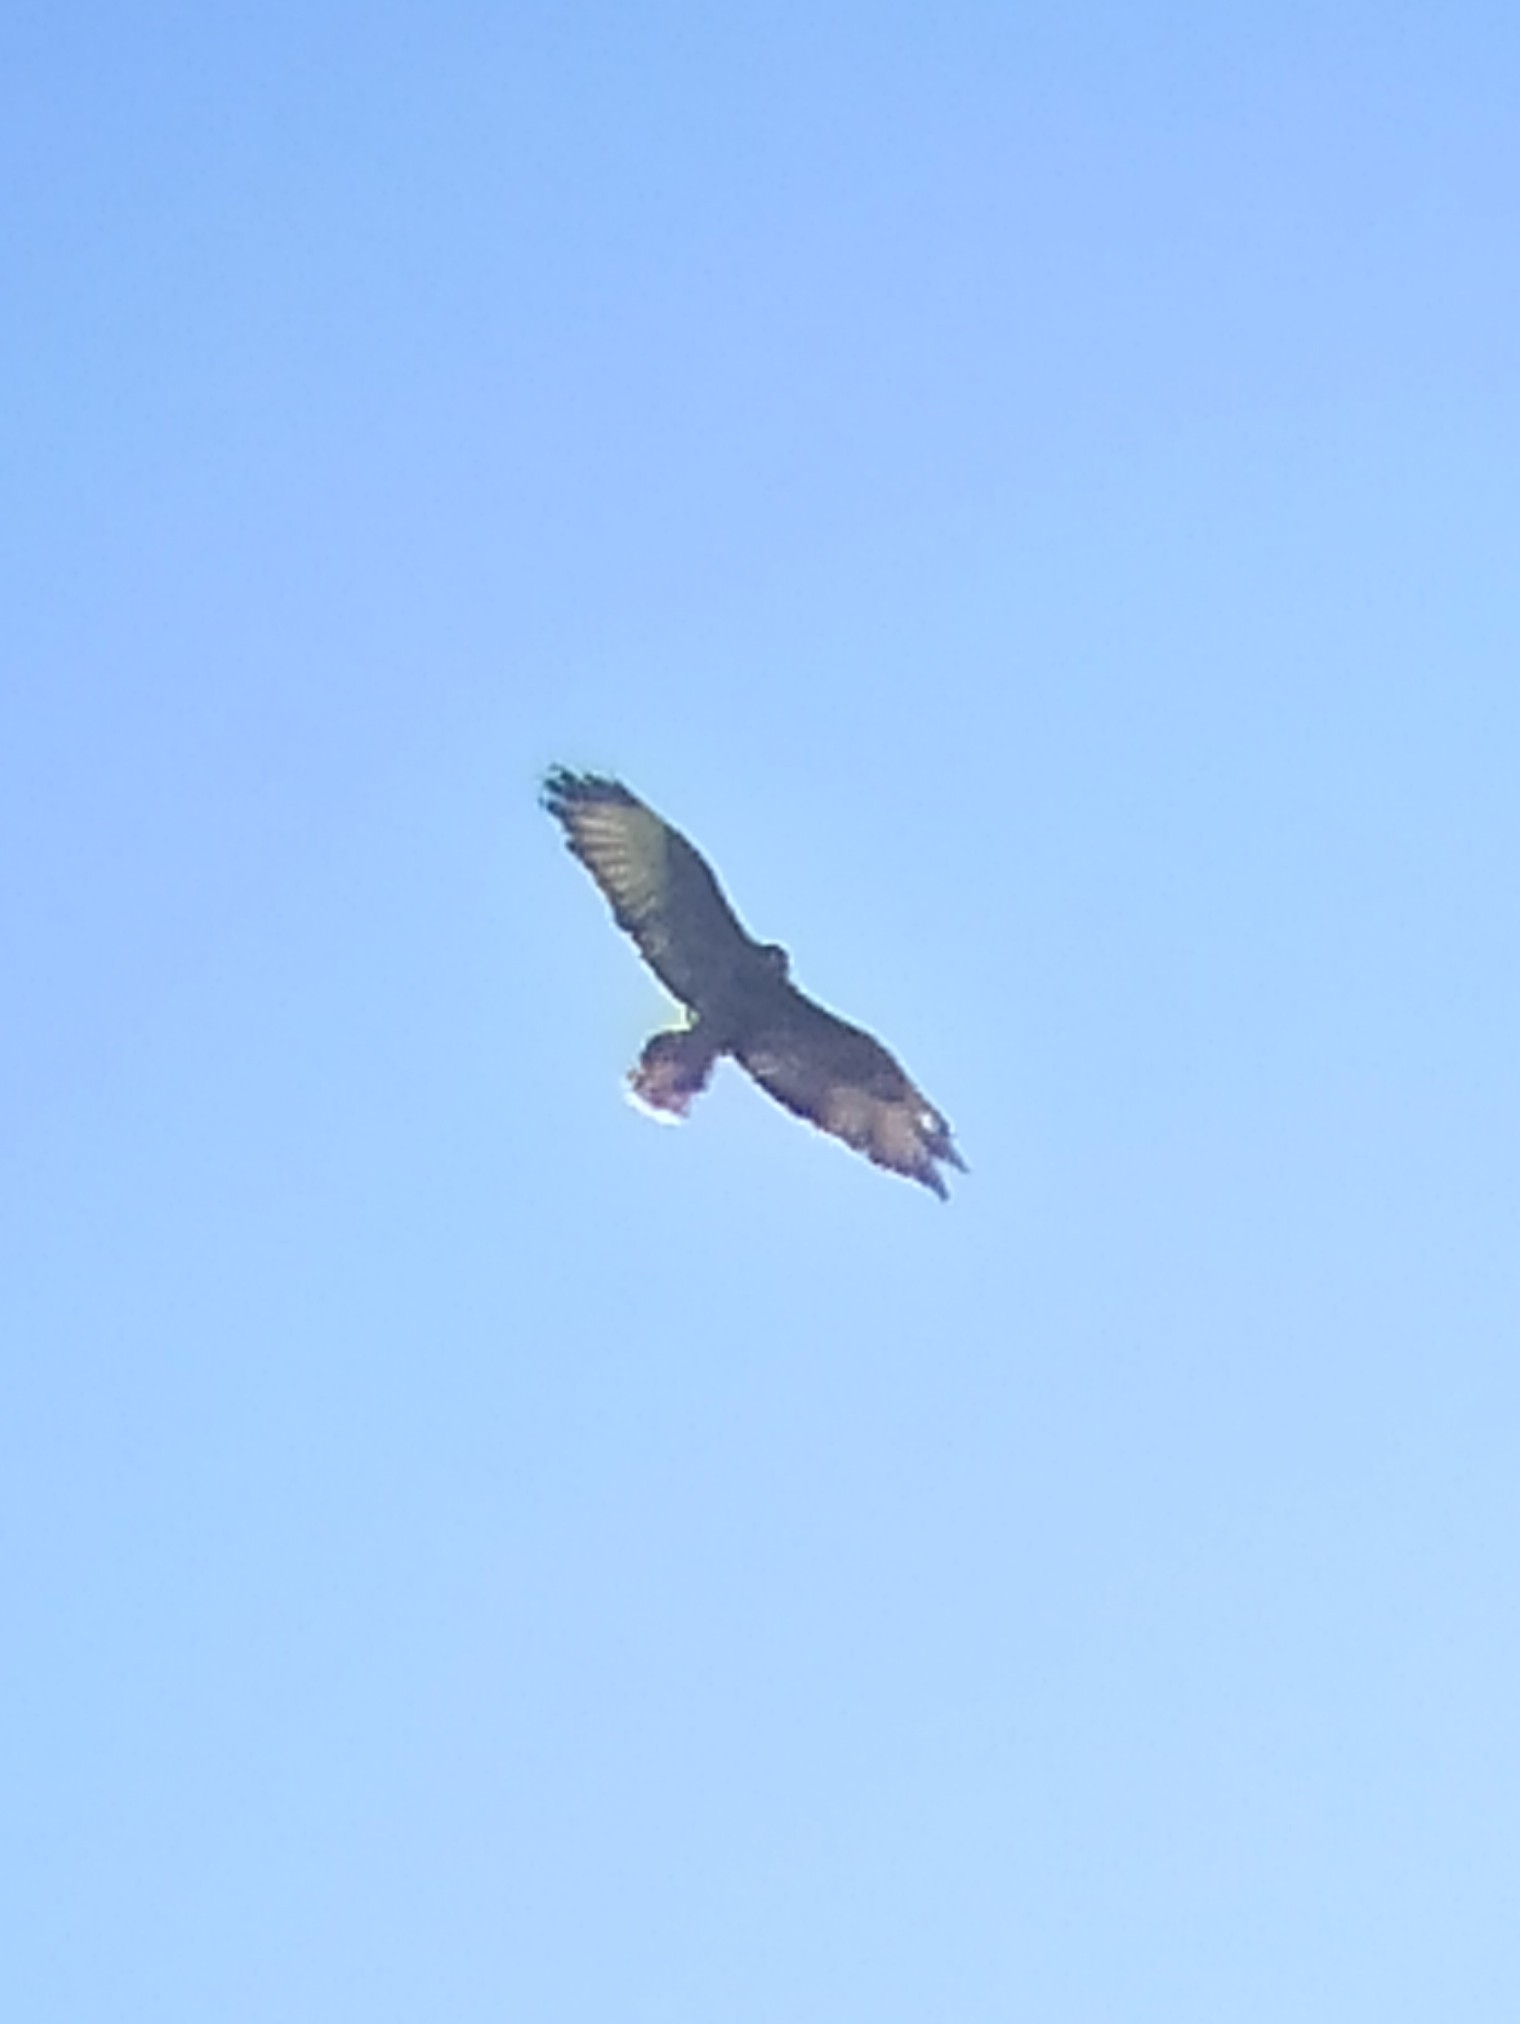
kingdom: Animalia
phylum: Chordata
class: Aves
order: Accipitriformes
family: Accipitridae
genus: Buteo
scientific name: Buteo buteo
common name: Common buzzard
